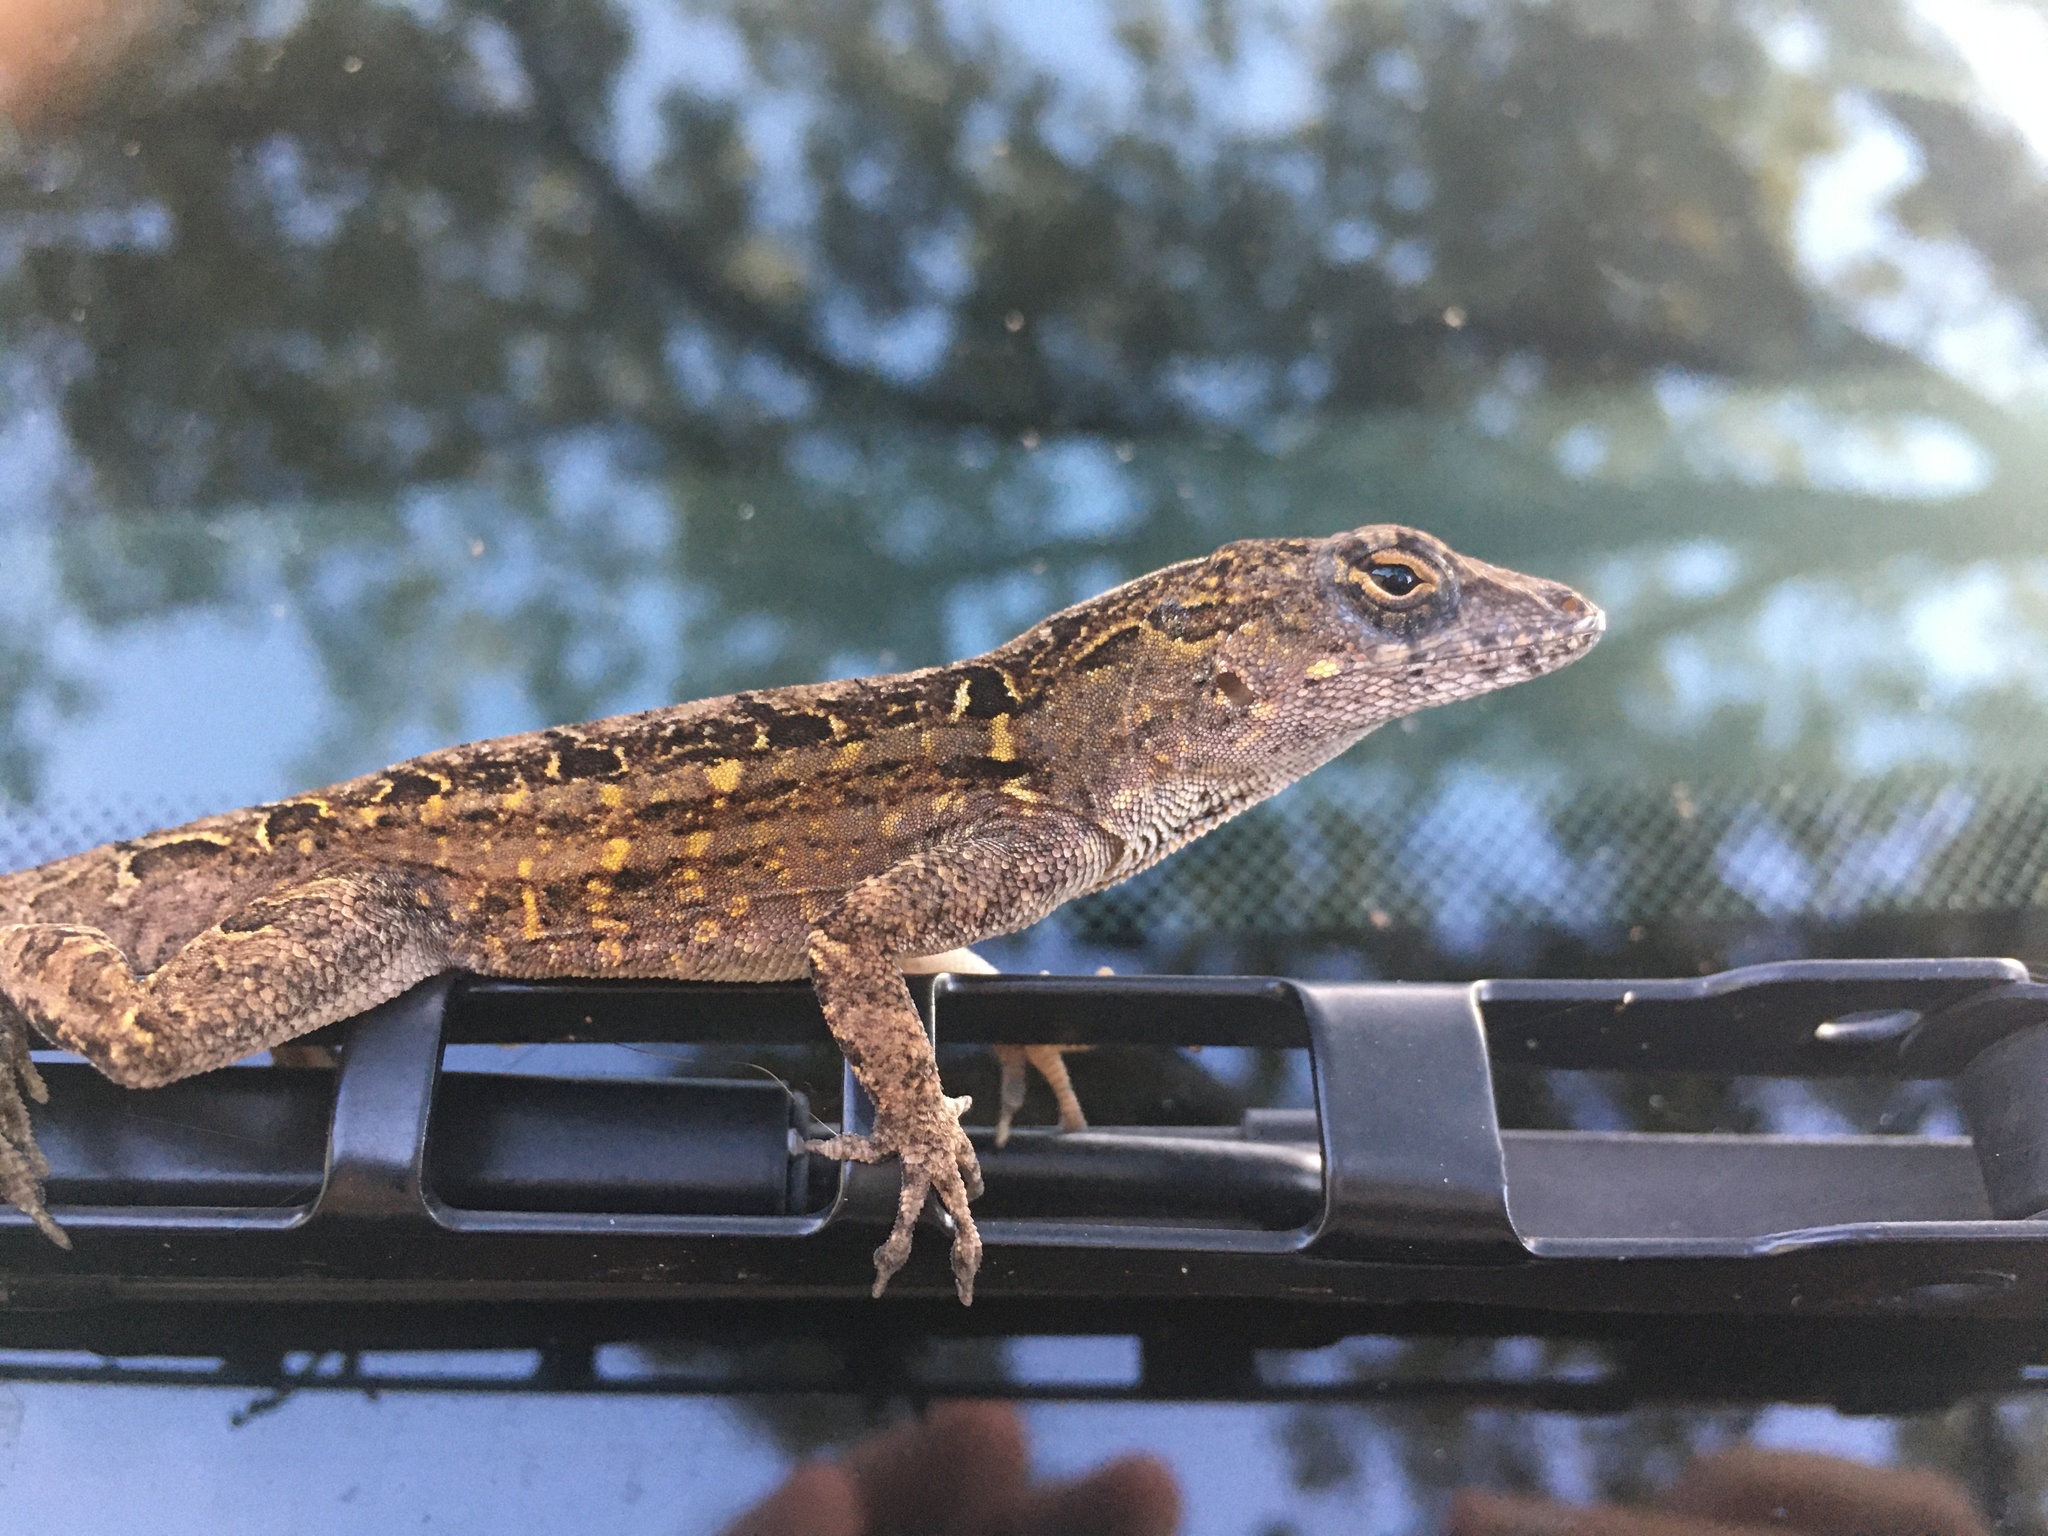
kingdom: Animalia
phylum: Chordata
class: Squamata
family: Dactyloidae
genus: Anolis
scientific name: Anolis sagrei
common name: Brown anole
